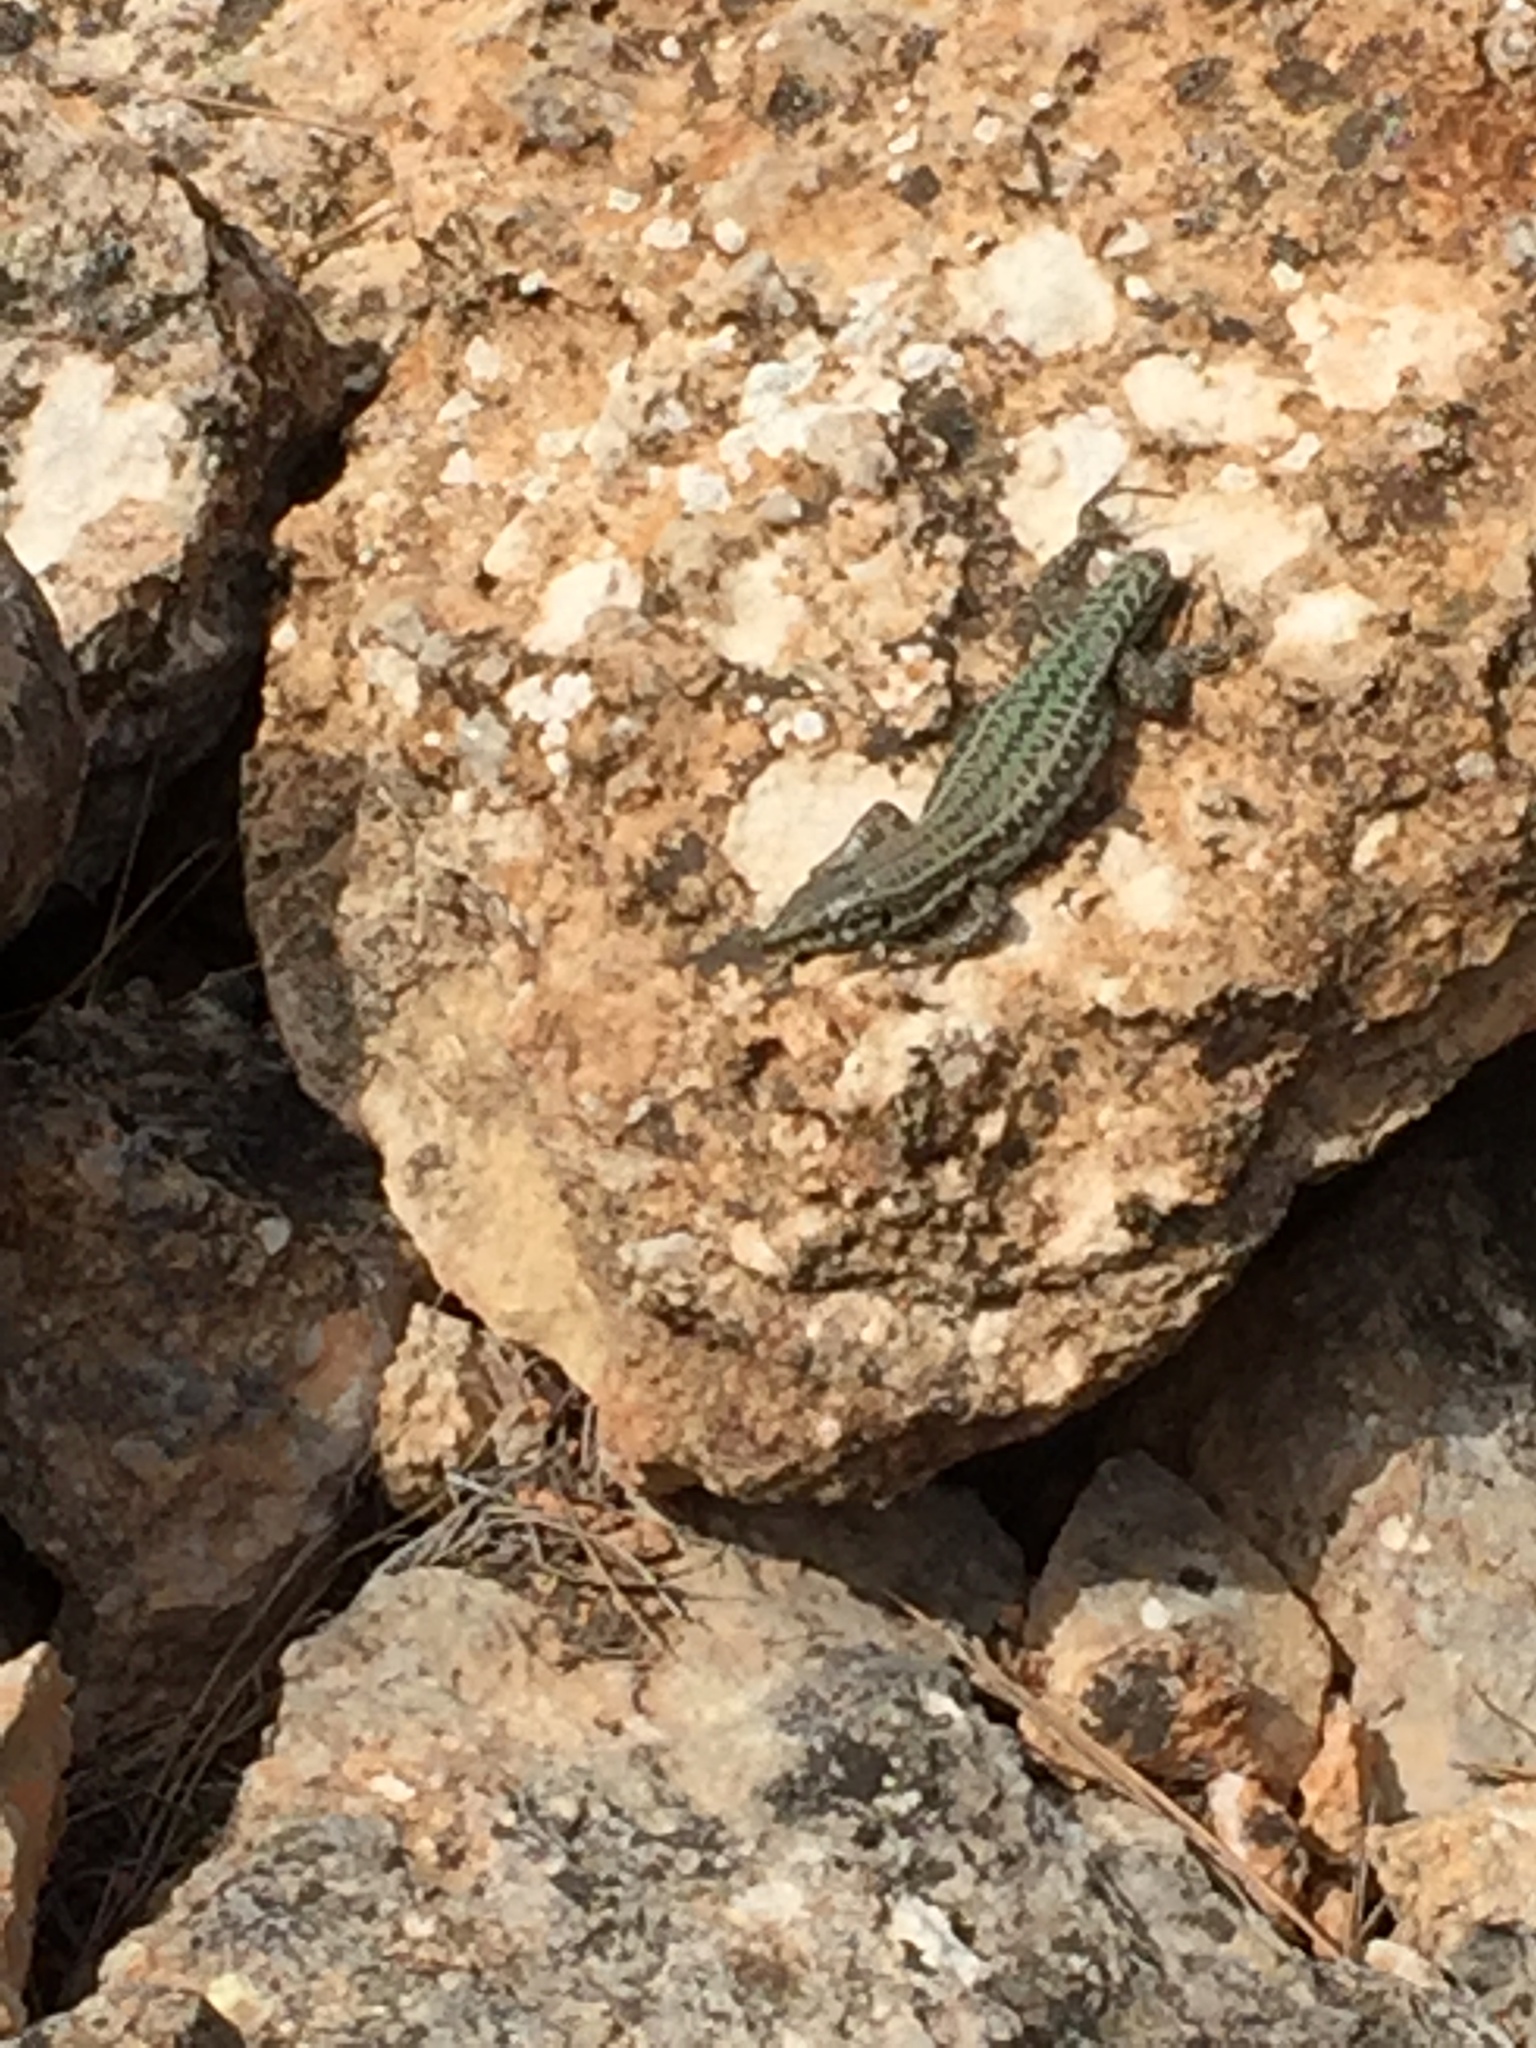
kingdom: Animalia
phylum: Chordata
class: Squamata
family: Lacertidae
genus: Podarcis
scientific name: Podarcis pityusensis
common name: Ibiza wall lizard
